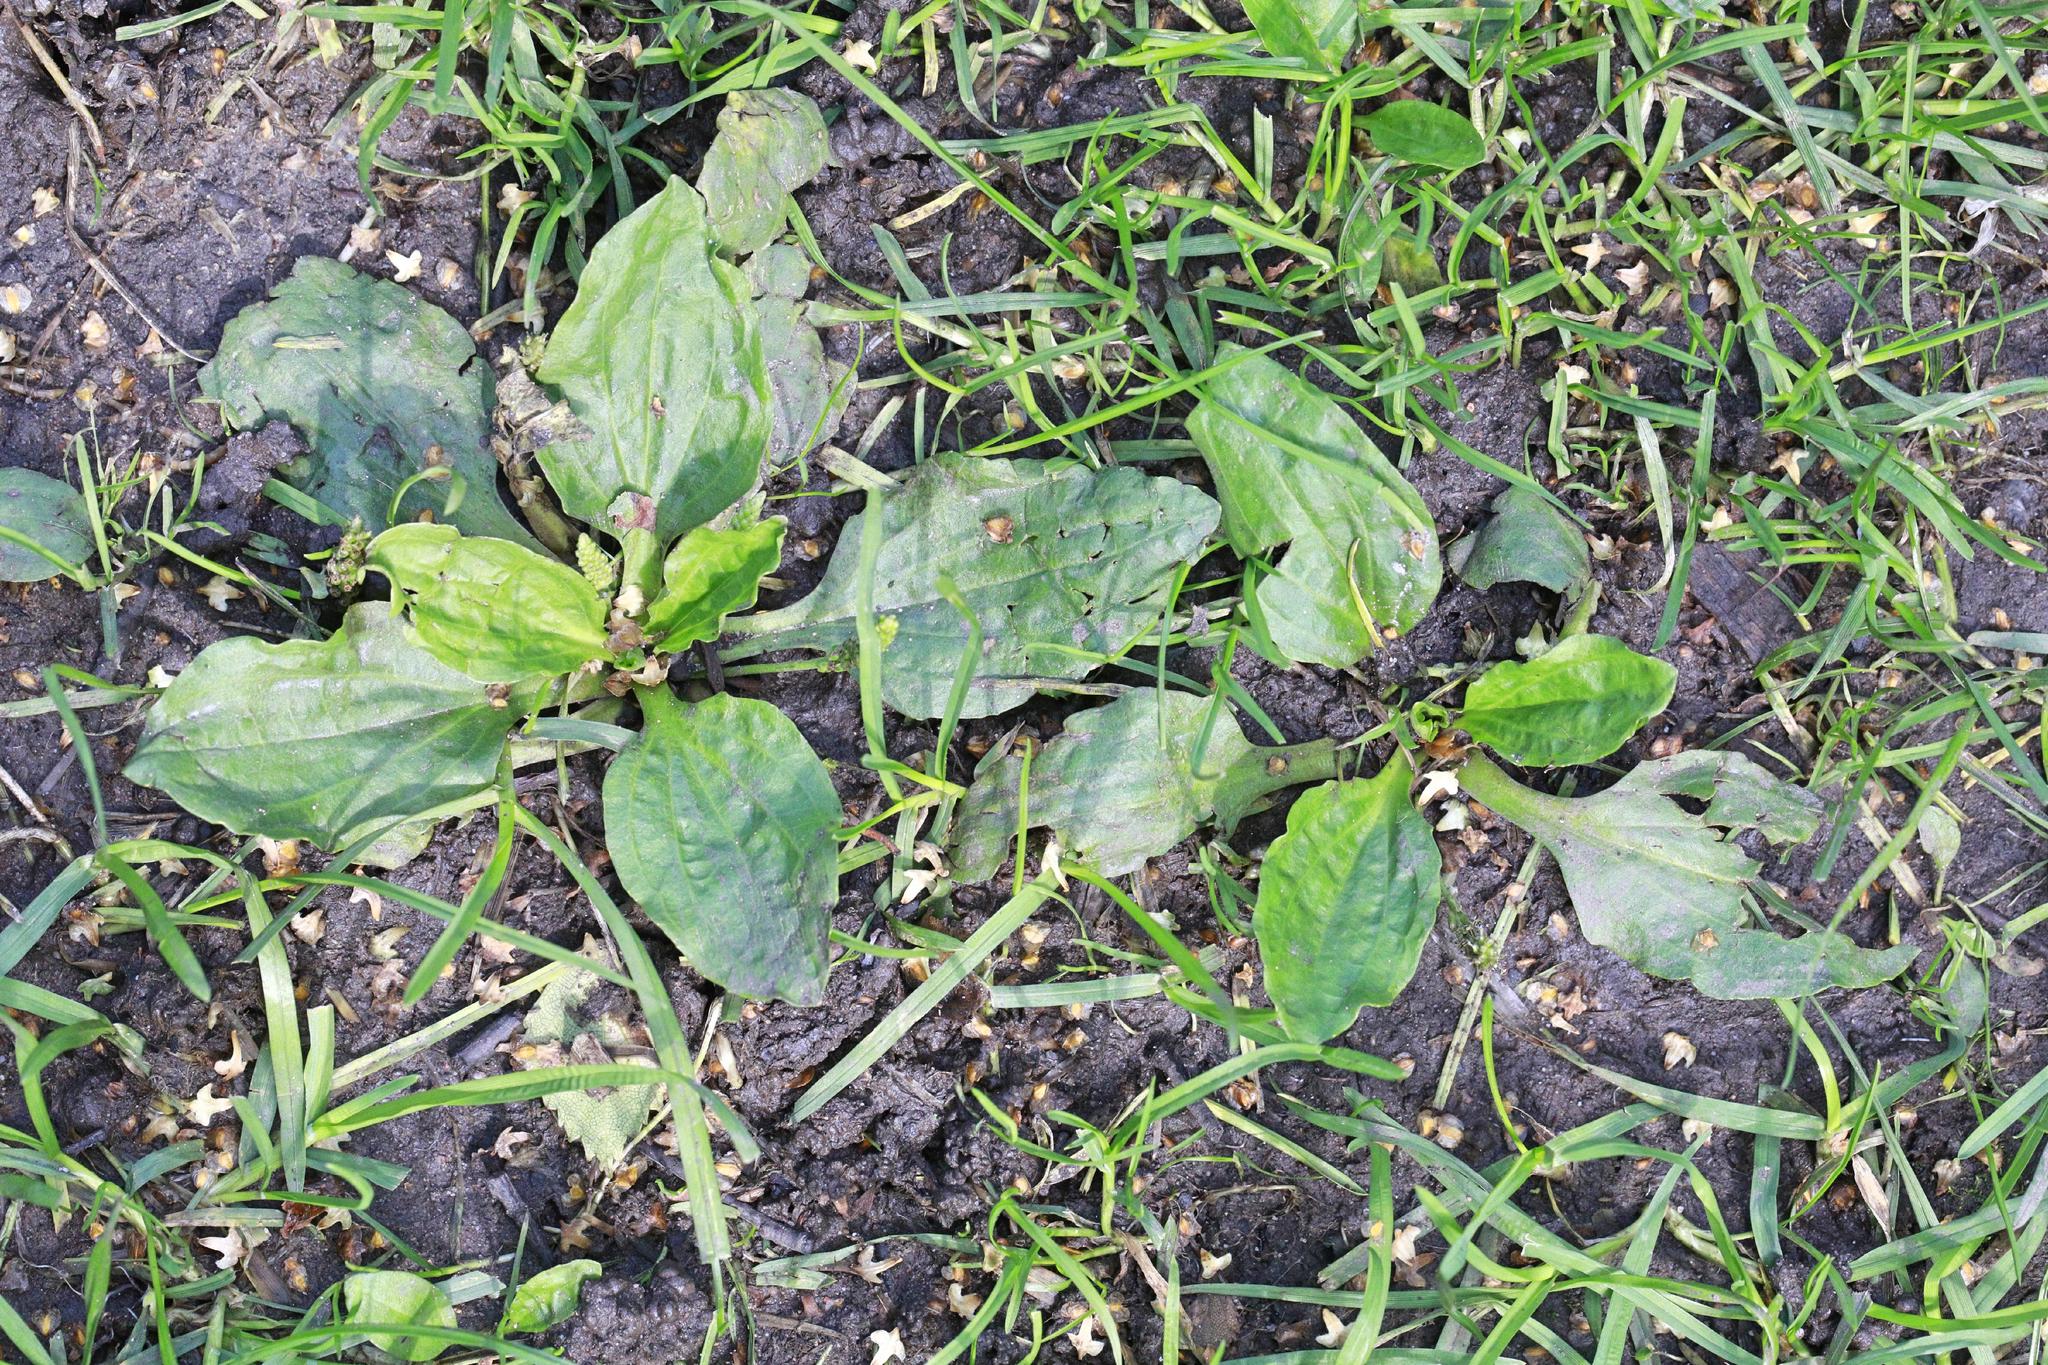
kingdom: Plantae
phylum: Tracheophyta
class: Magnoliopsida
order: Lamiales
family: Plantaginaceae
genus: Plantago
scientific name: Plantago major
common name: Common plantain
